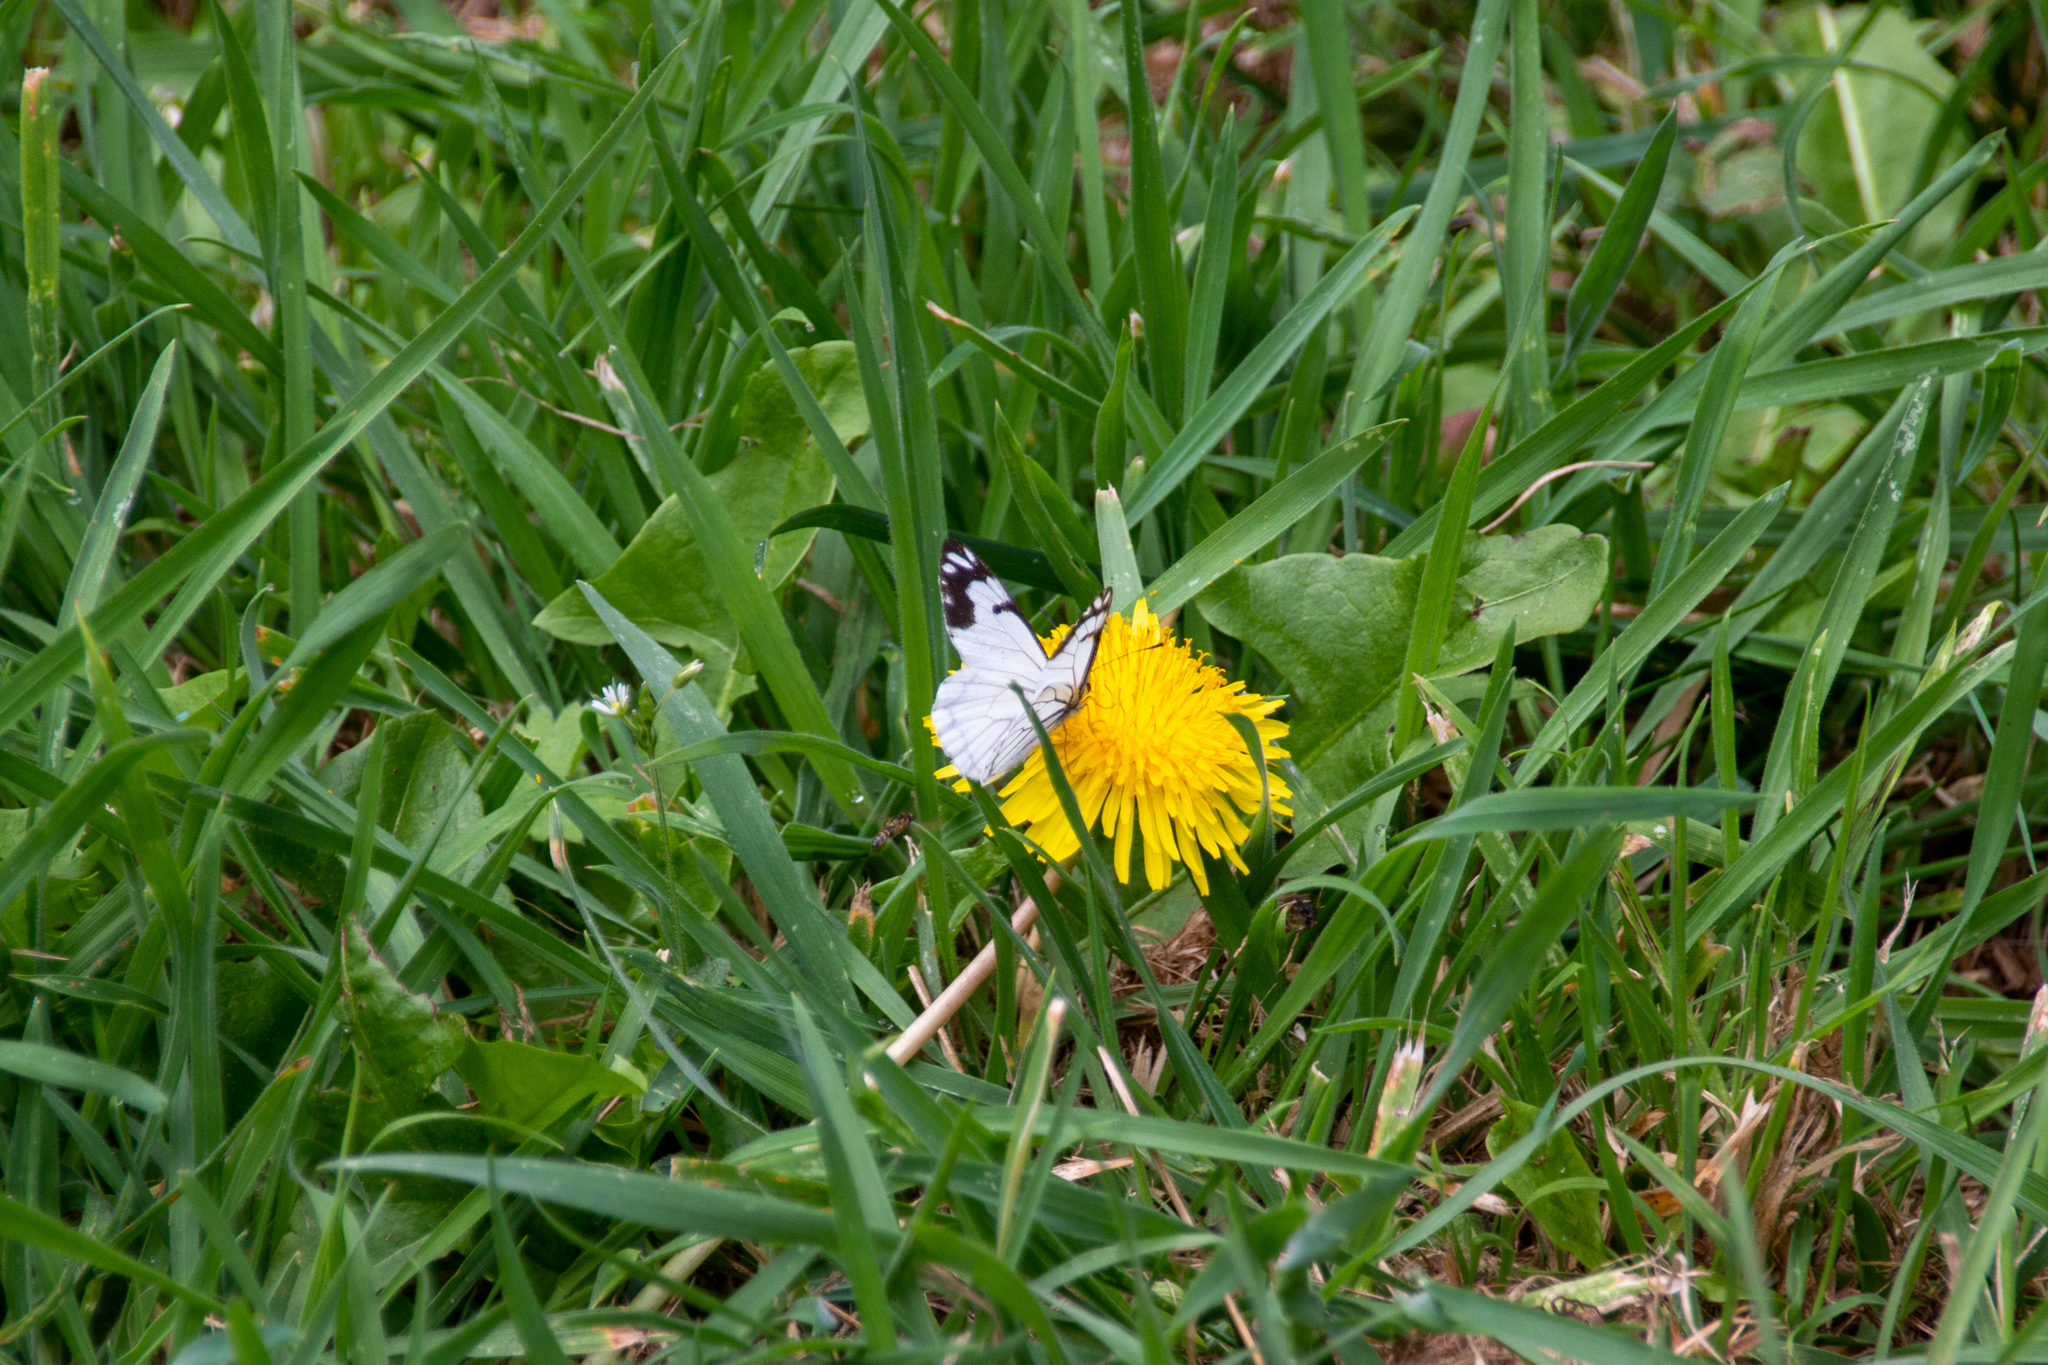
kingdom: Animalia
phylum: Arthropoda
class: Insecta
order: Lepidoptera
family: Pieridae
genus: Neophasia
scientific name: Neophasia menapia
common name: Pine white
